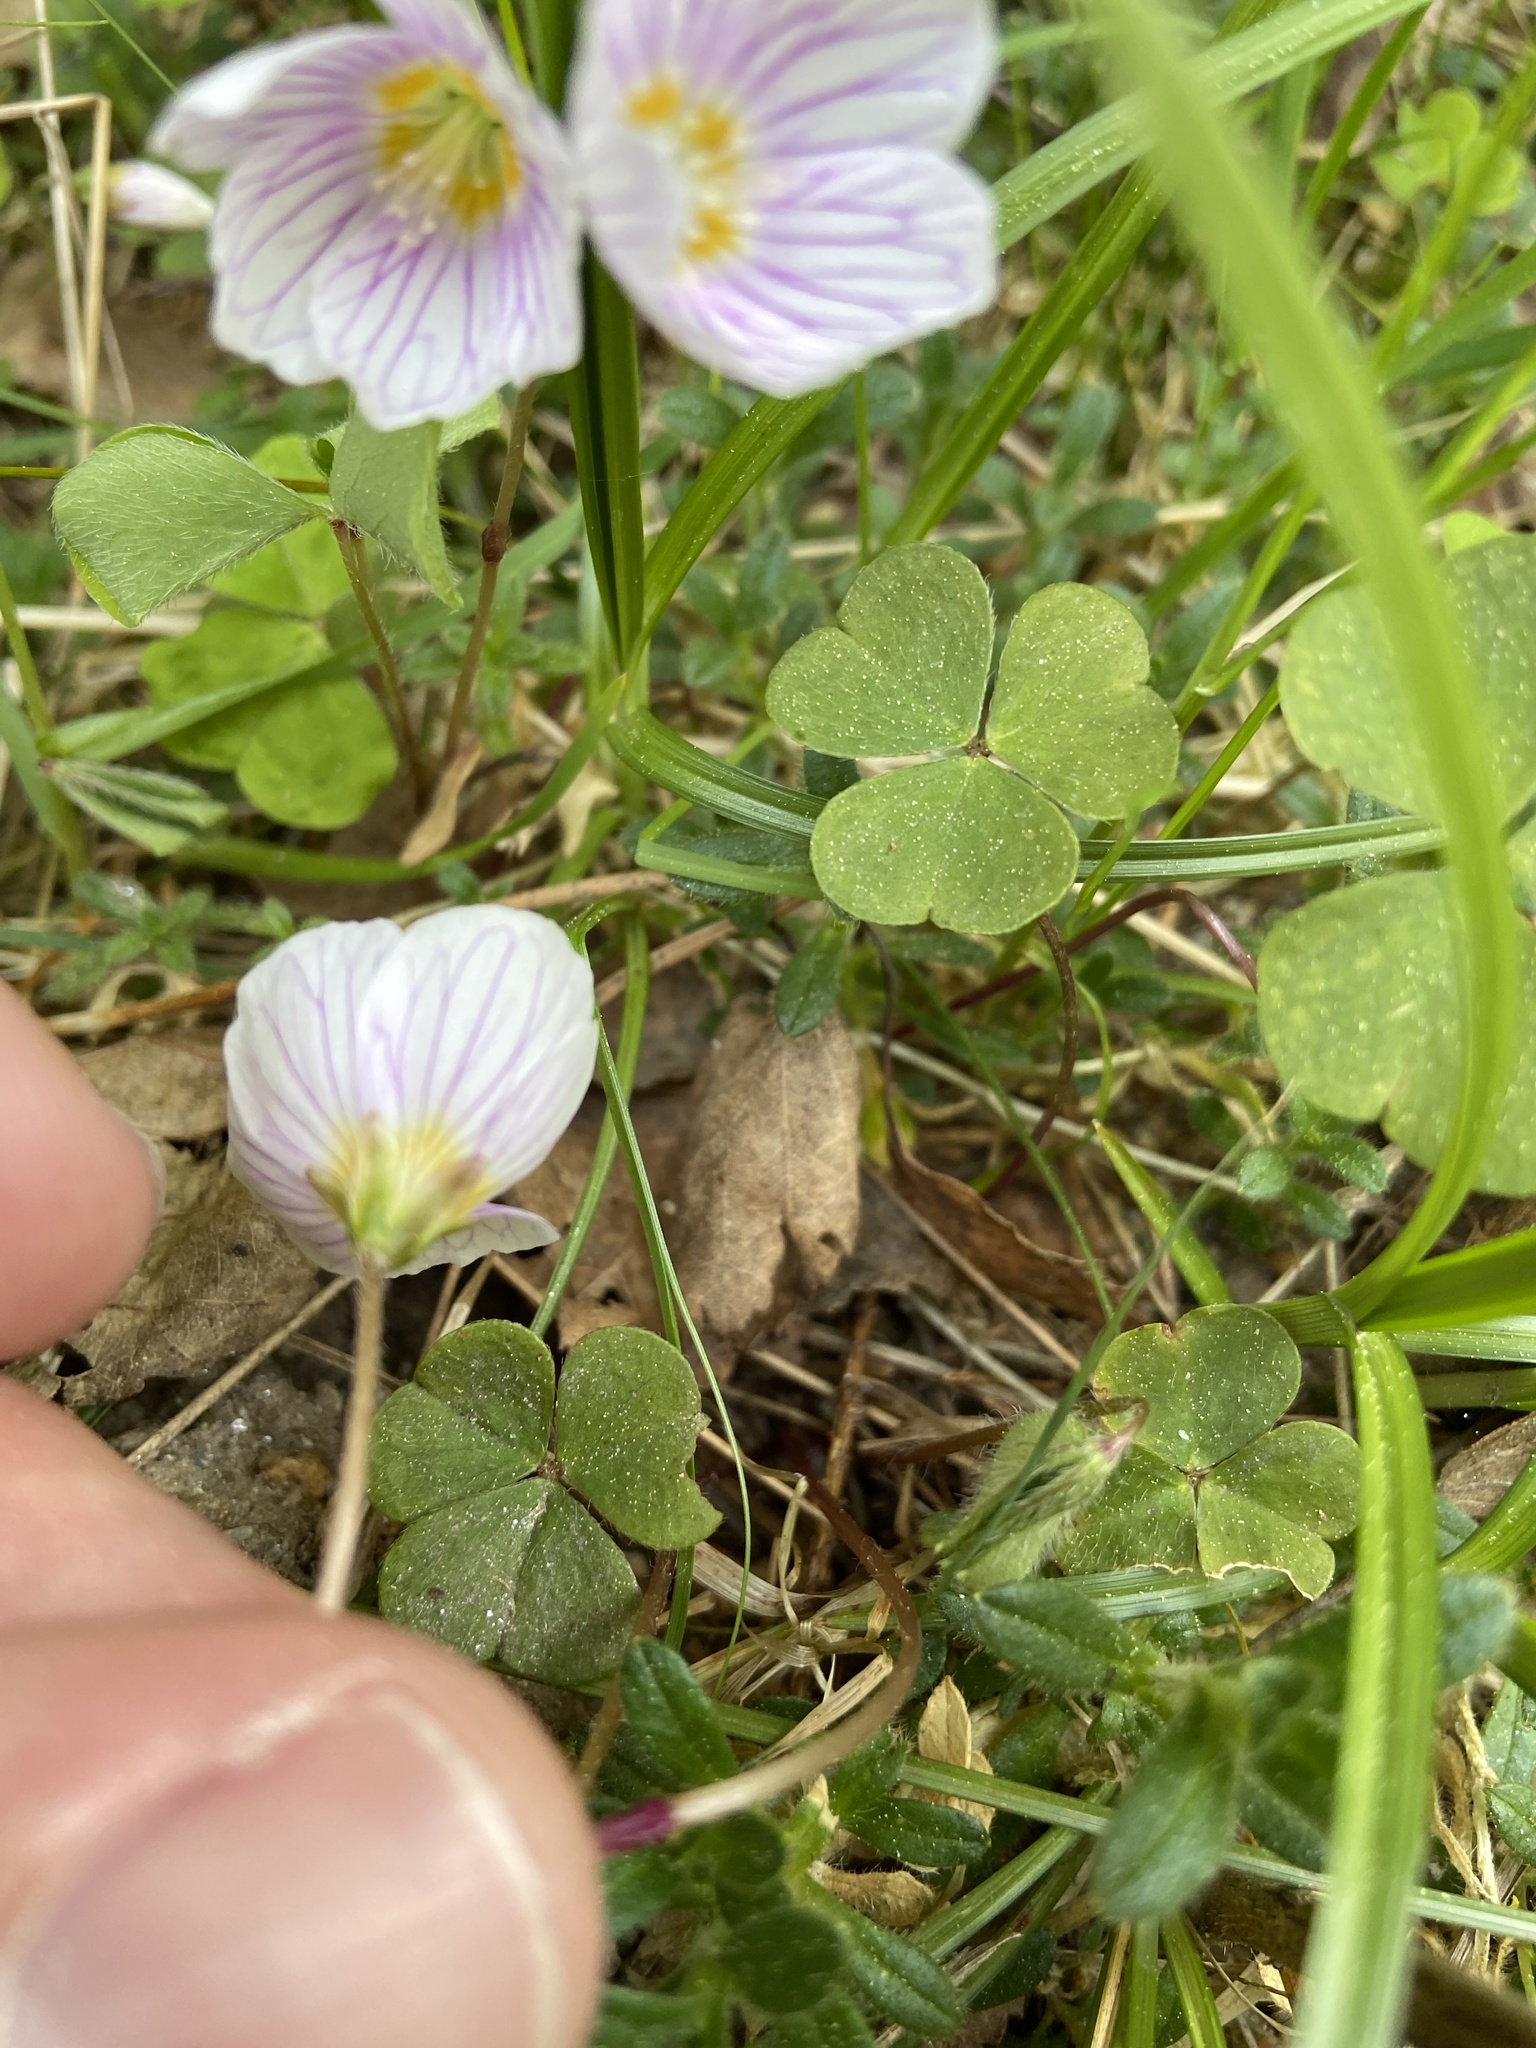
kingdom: Plantae
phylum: Tracheophyta
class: Magnoliopsida
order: Oxalidales
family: Oxalidaceae
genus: Oxalis
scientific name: Oxalis acetosella
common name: Wood-sorrel
